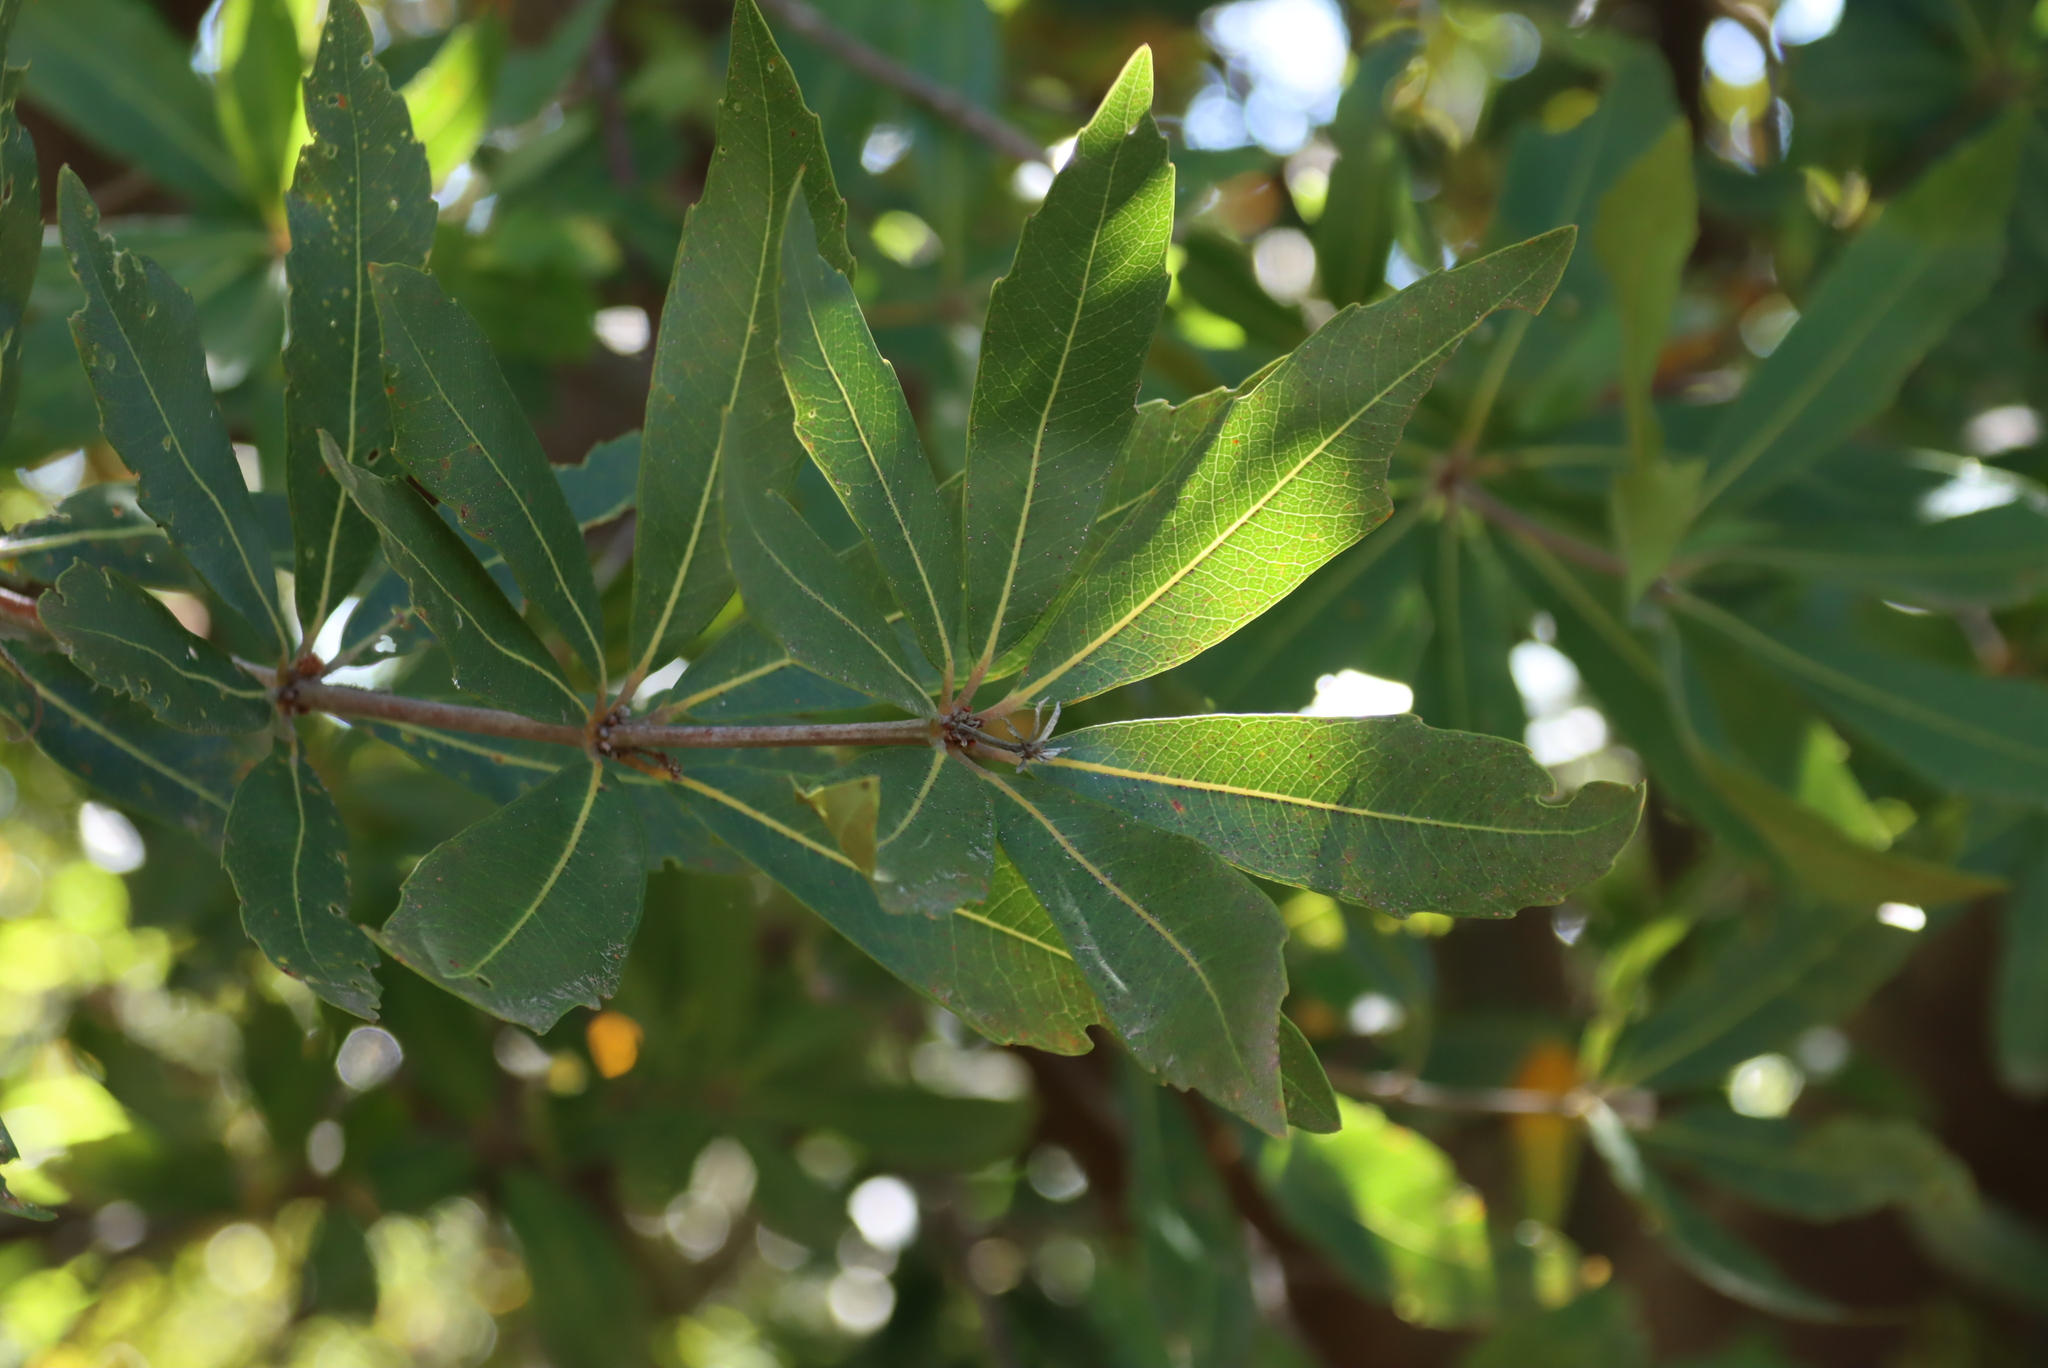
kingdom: Plantae
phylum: Tracheophyta
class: Magnoliopsida
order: Proteales
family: Proteaceae
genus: Brabejum
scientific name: Brabejum stellatifolium
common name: Wild almond
